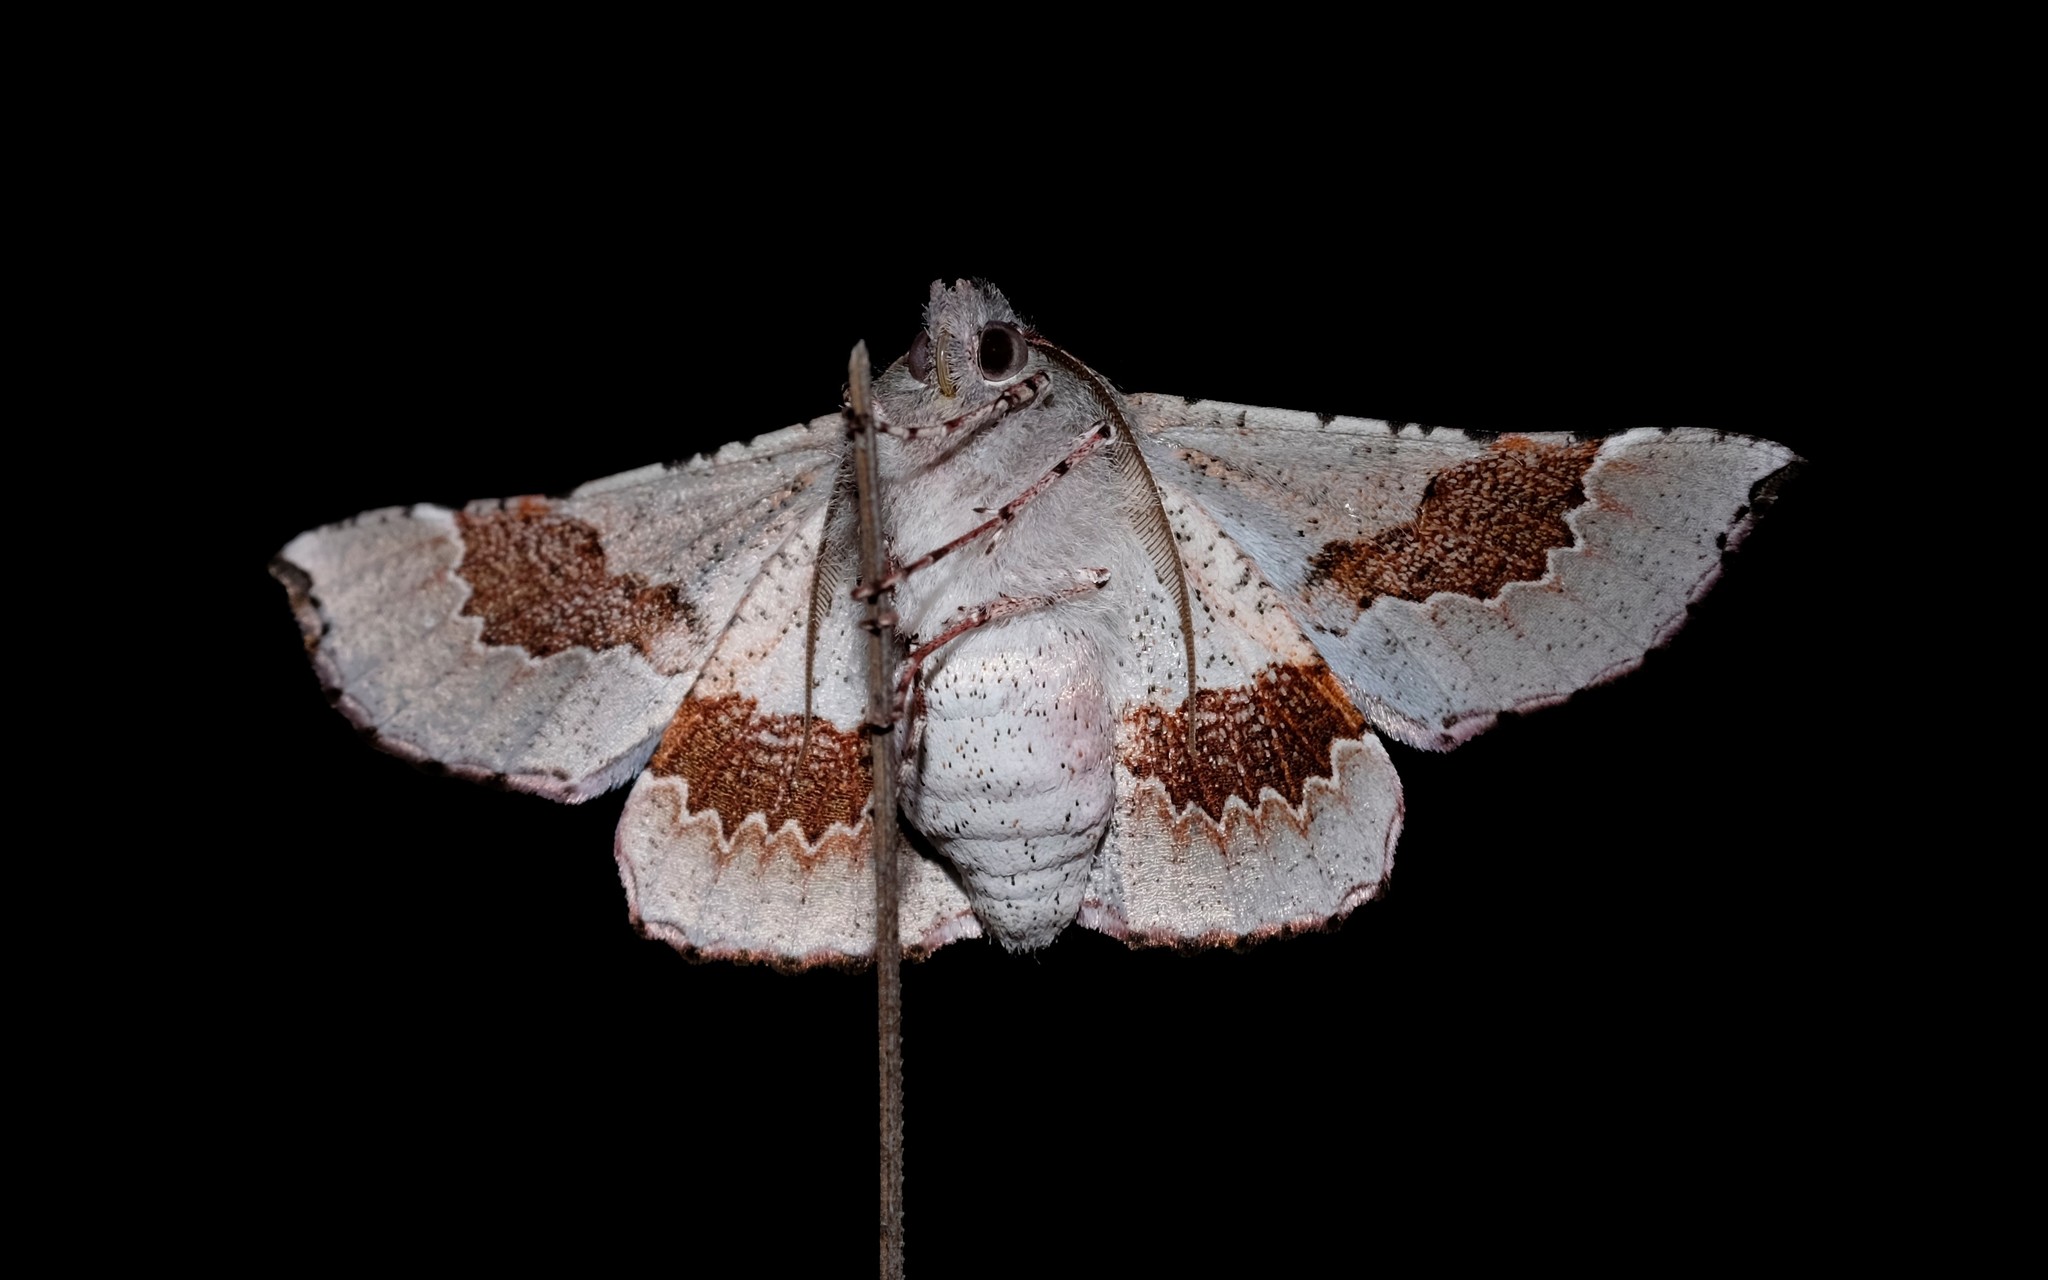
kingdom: Animalia
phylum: Arthropoda
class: Insecta
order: Lepidoptera
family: Geometridae
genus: Oenochroma
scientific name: Oenochroma privata
